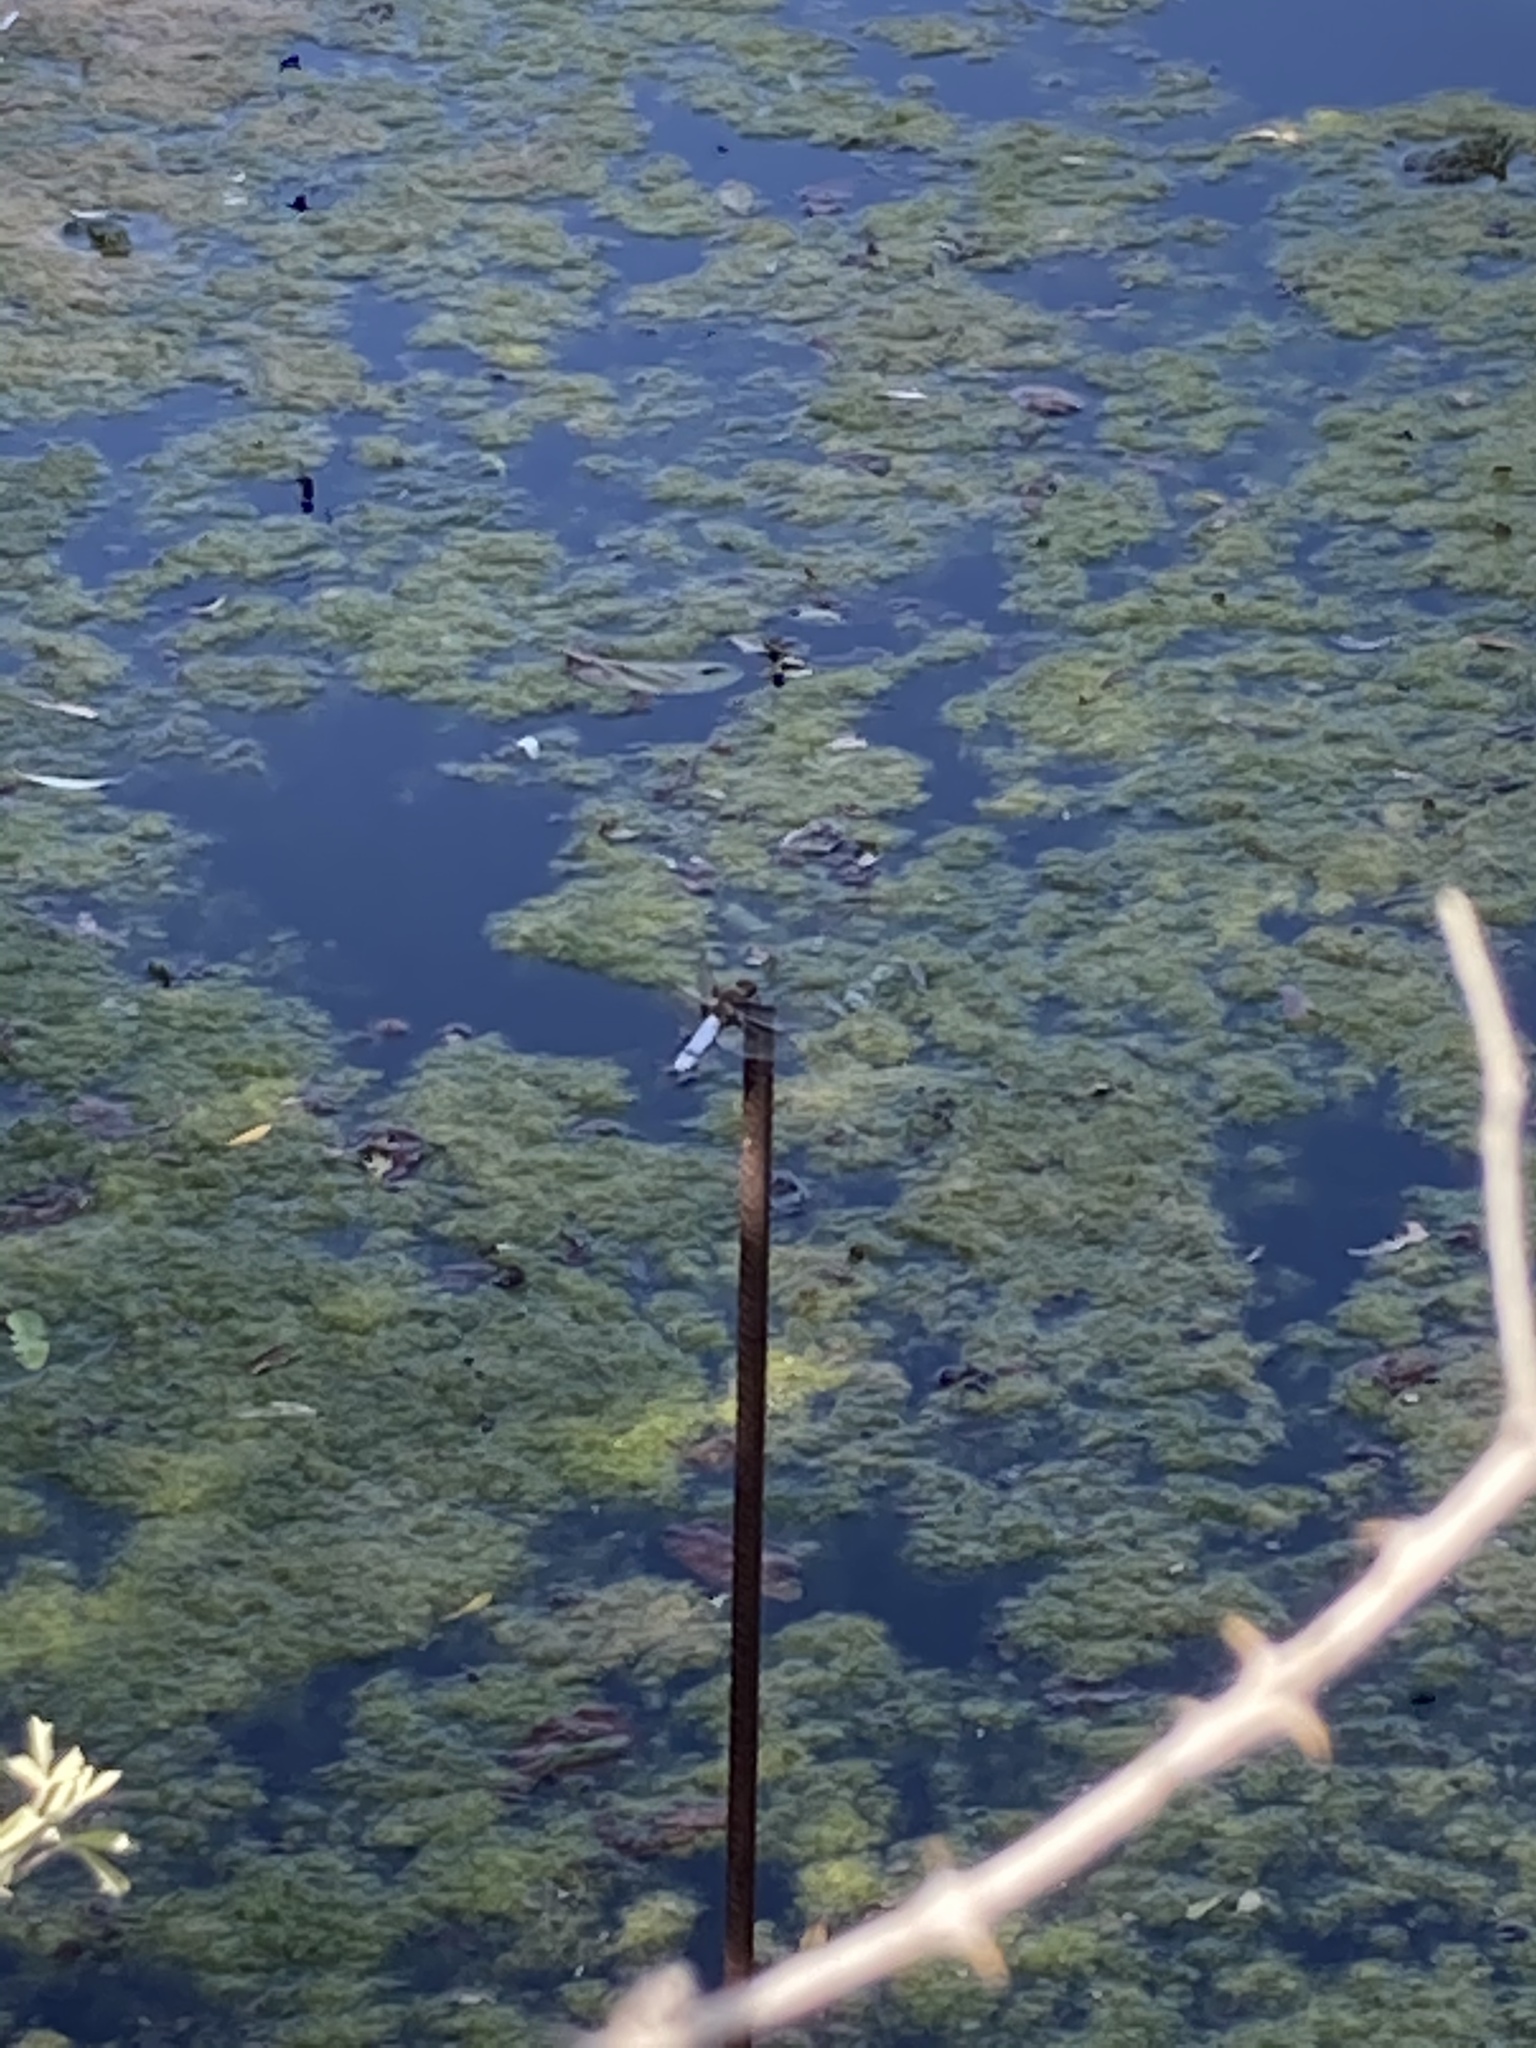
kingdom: Animalia
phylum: Arthropoda
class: Insecta
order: Odonata
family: Libellulidae
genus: Libellula
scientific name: Libellula depressa
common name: Broad-bodied chaser
